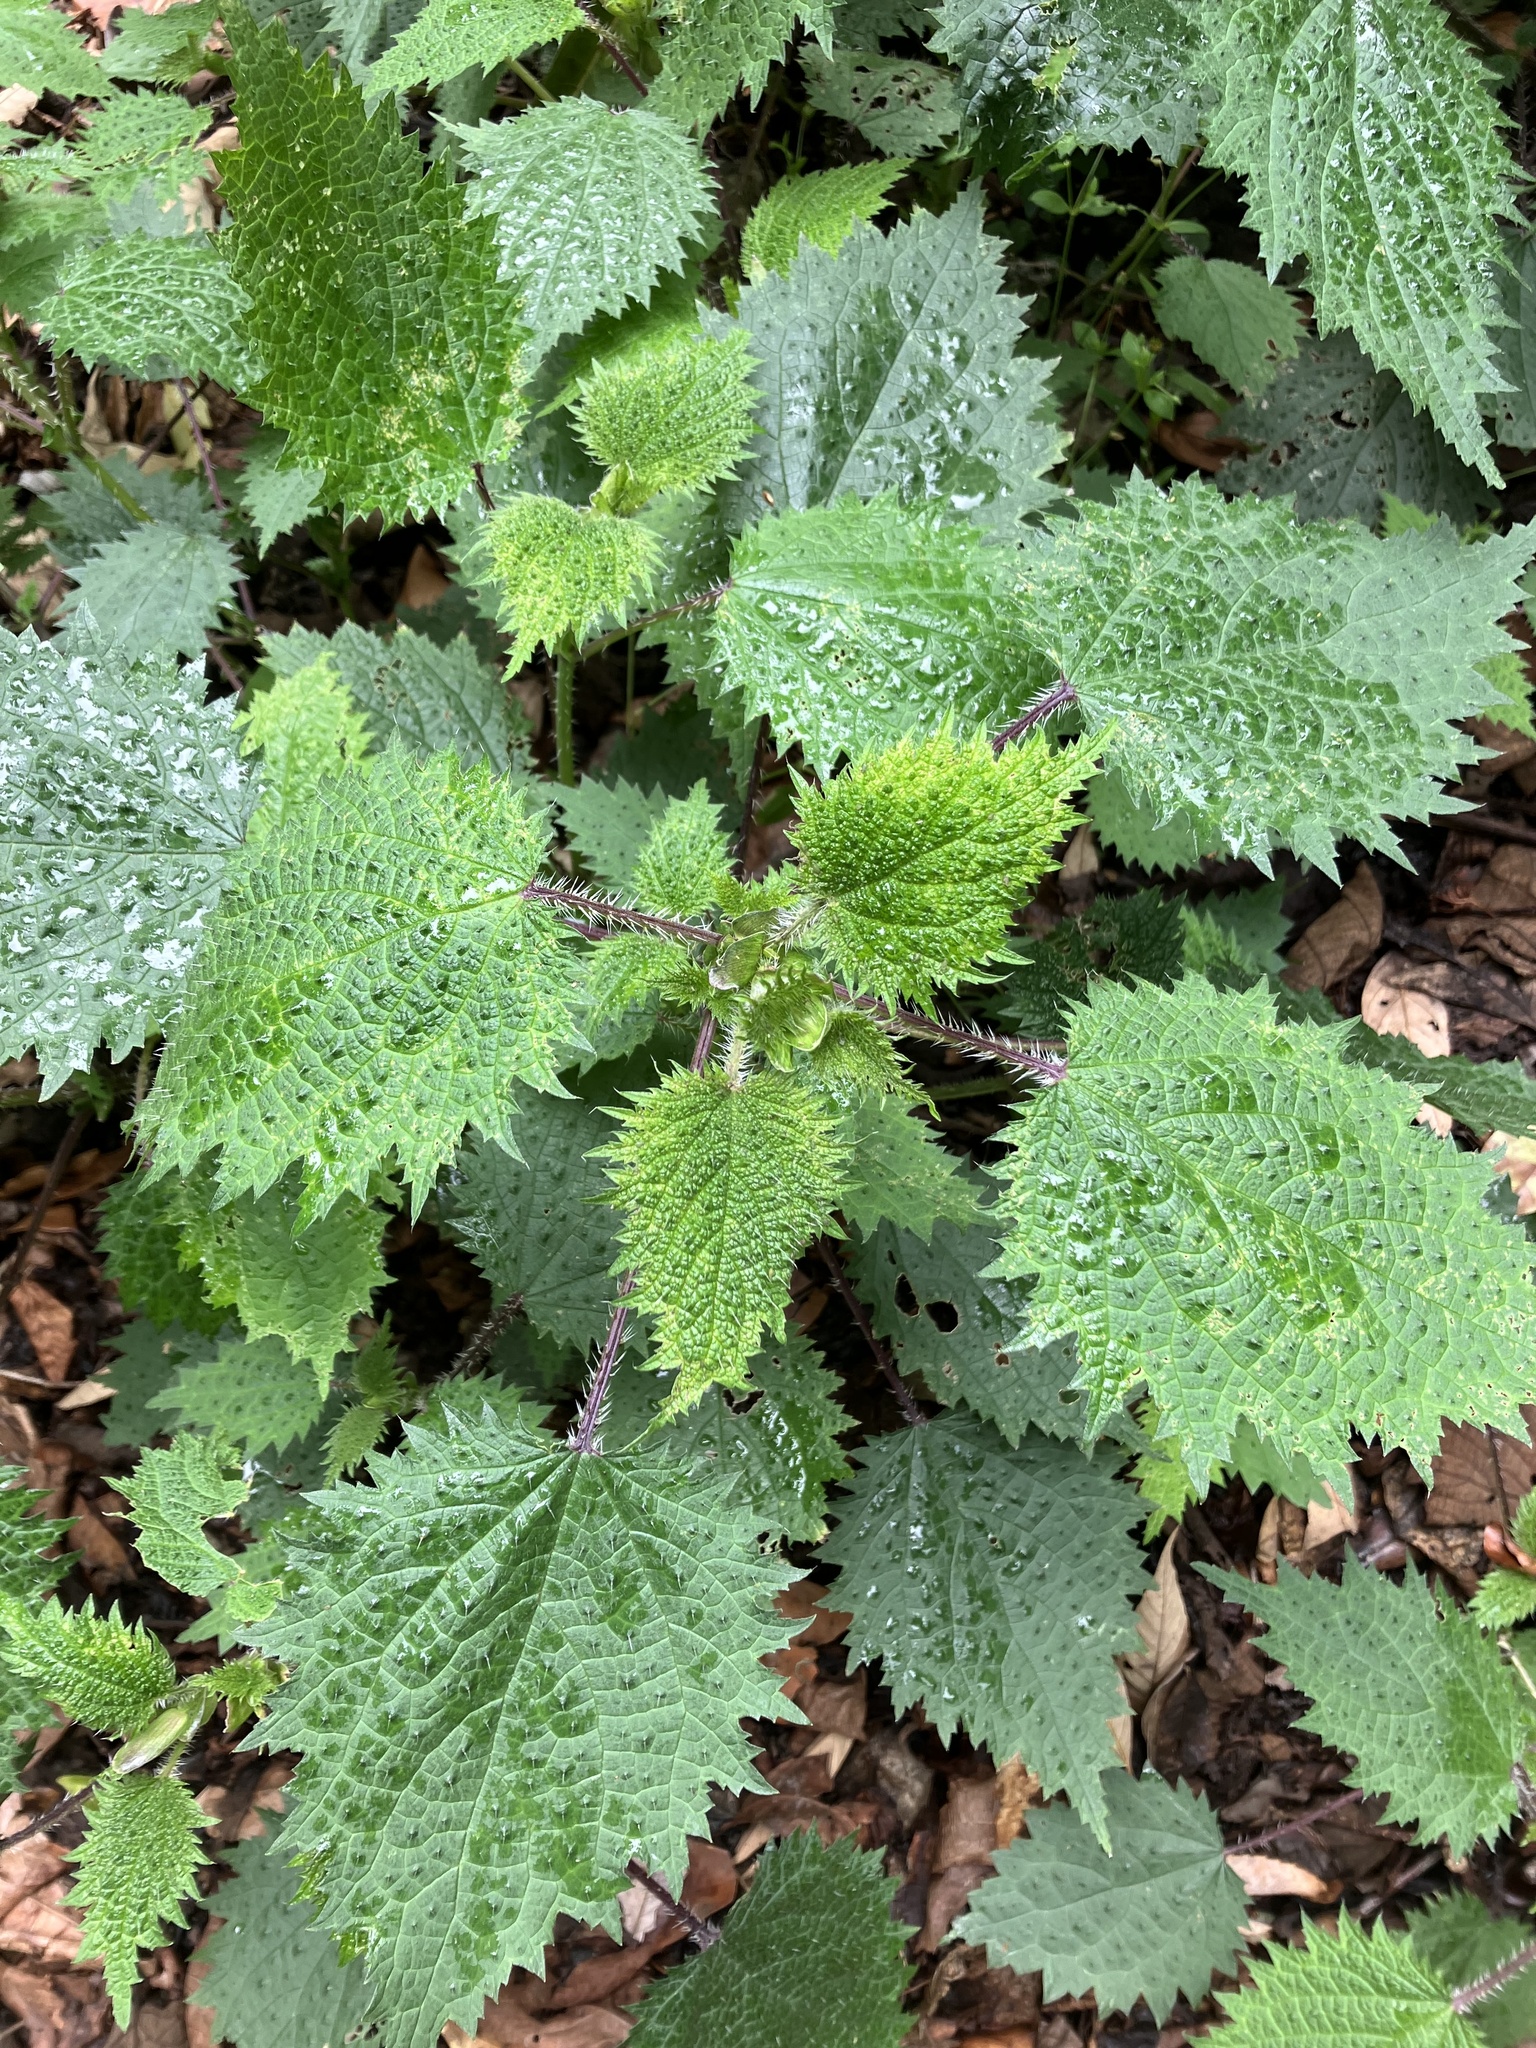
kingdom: Plantae
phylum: Tracheophyta
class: Magnoliopsida
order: Rosales
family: Urticaceae
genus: Urtica
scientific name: Urtica thunbergiana
